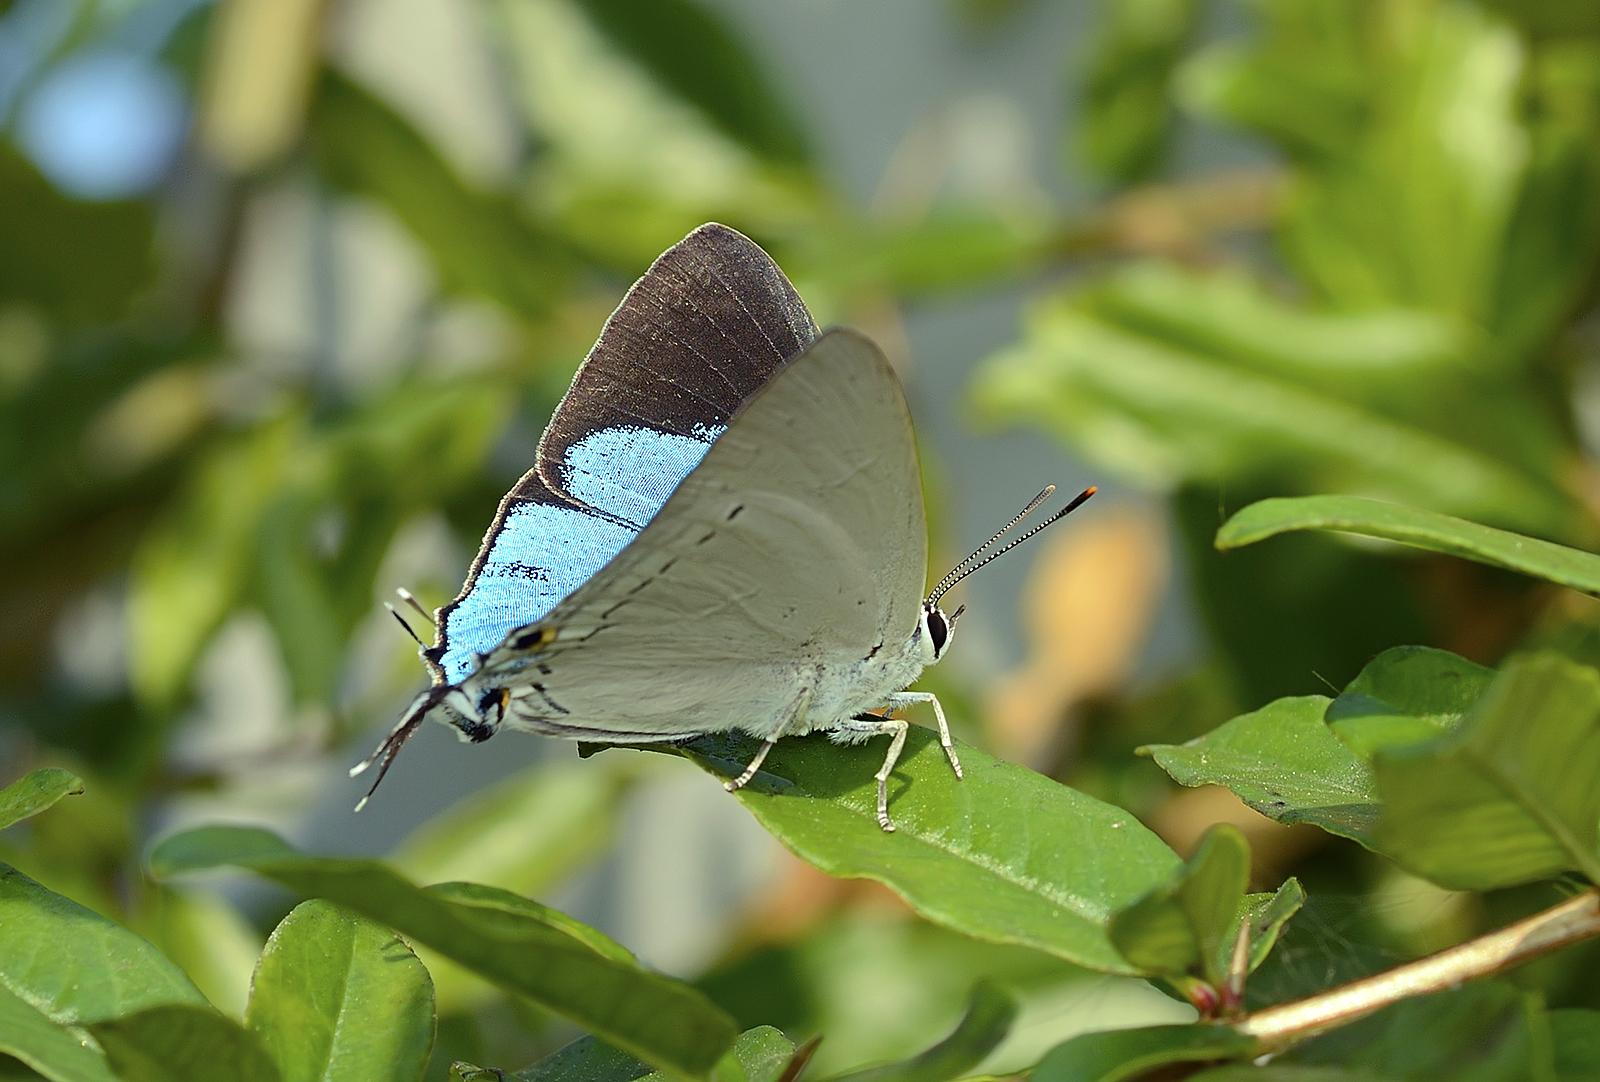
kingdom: Animalia
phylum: Arthropoda
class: Insecta
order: Lepidoptera
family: Lycaenidae
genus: Tajuria
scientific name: Tajuria cippus
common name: Peacock royal
